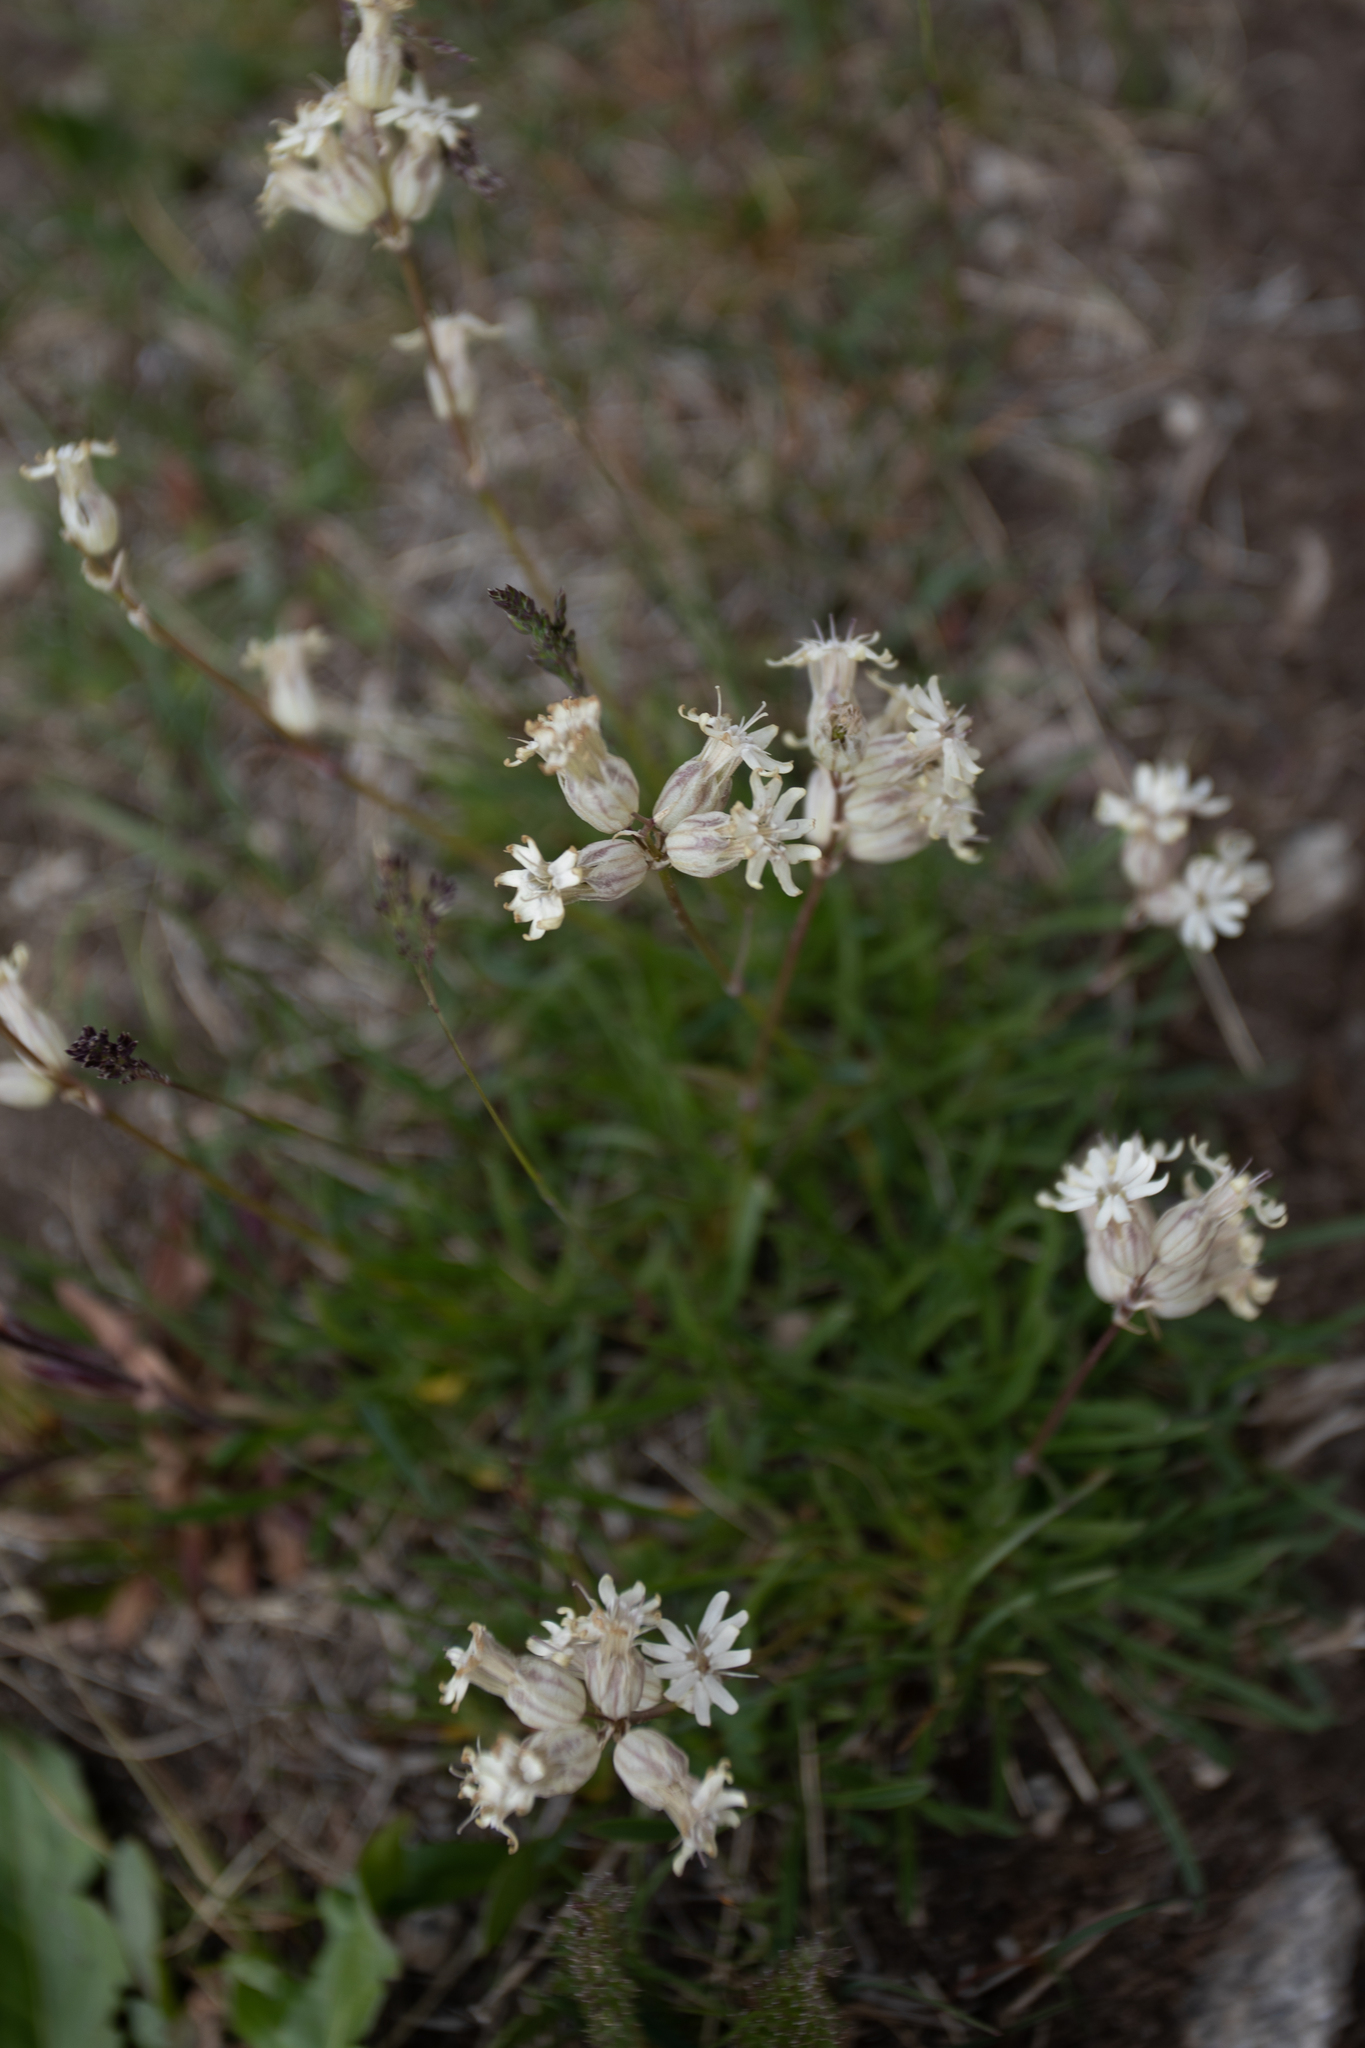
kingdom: Plantae
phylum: Tracheophyta
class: Magnoliopsida
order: Caryophyllales
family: Caryophyllaceae
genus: Silene
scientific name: Silene amoena
